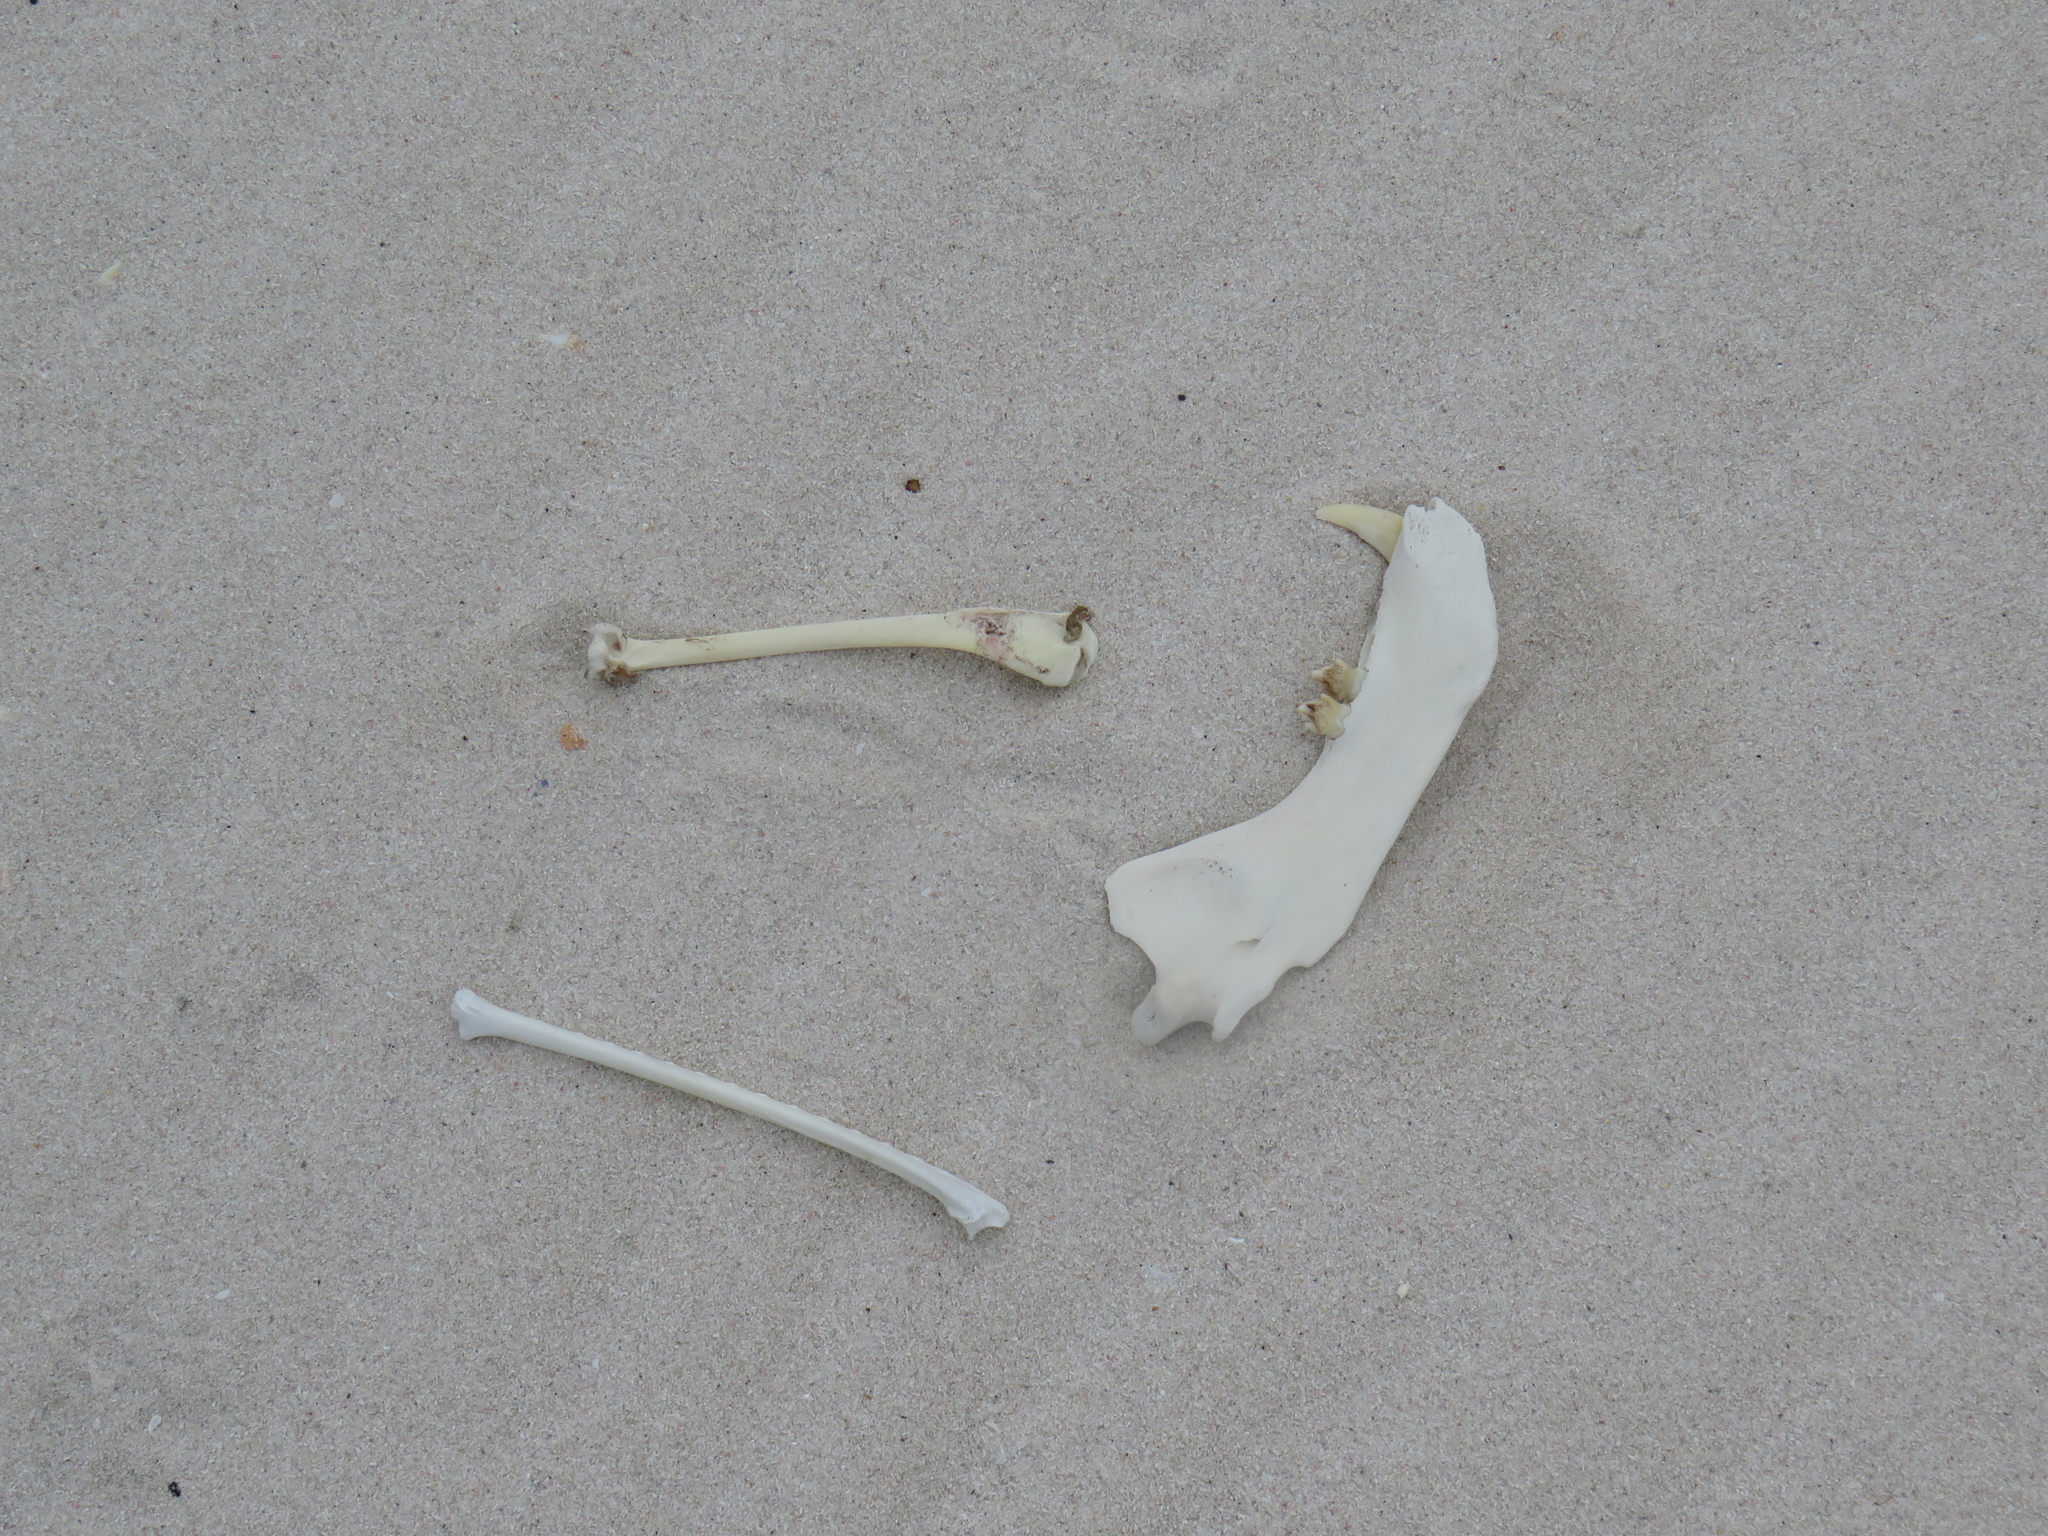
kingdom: Animalia
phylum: Chordata
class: Mammalia
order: Carnivora
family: Otariidae
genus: Arctocephalus
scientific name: Arctocephalus pusillus
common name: Brown fur seal
